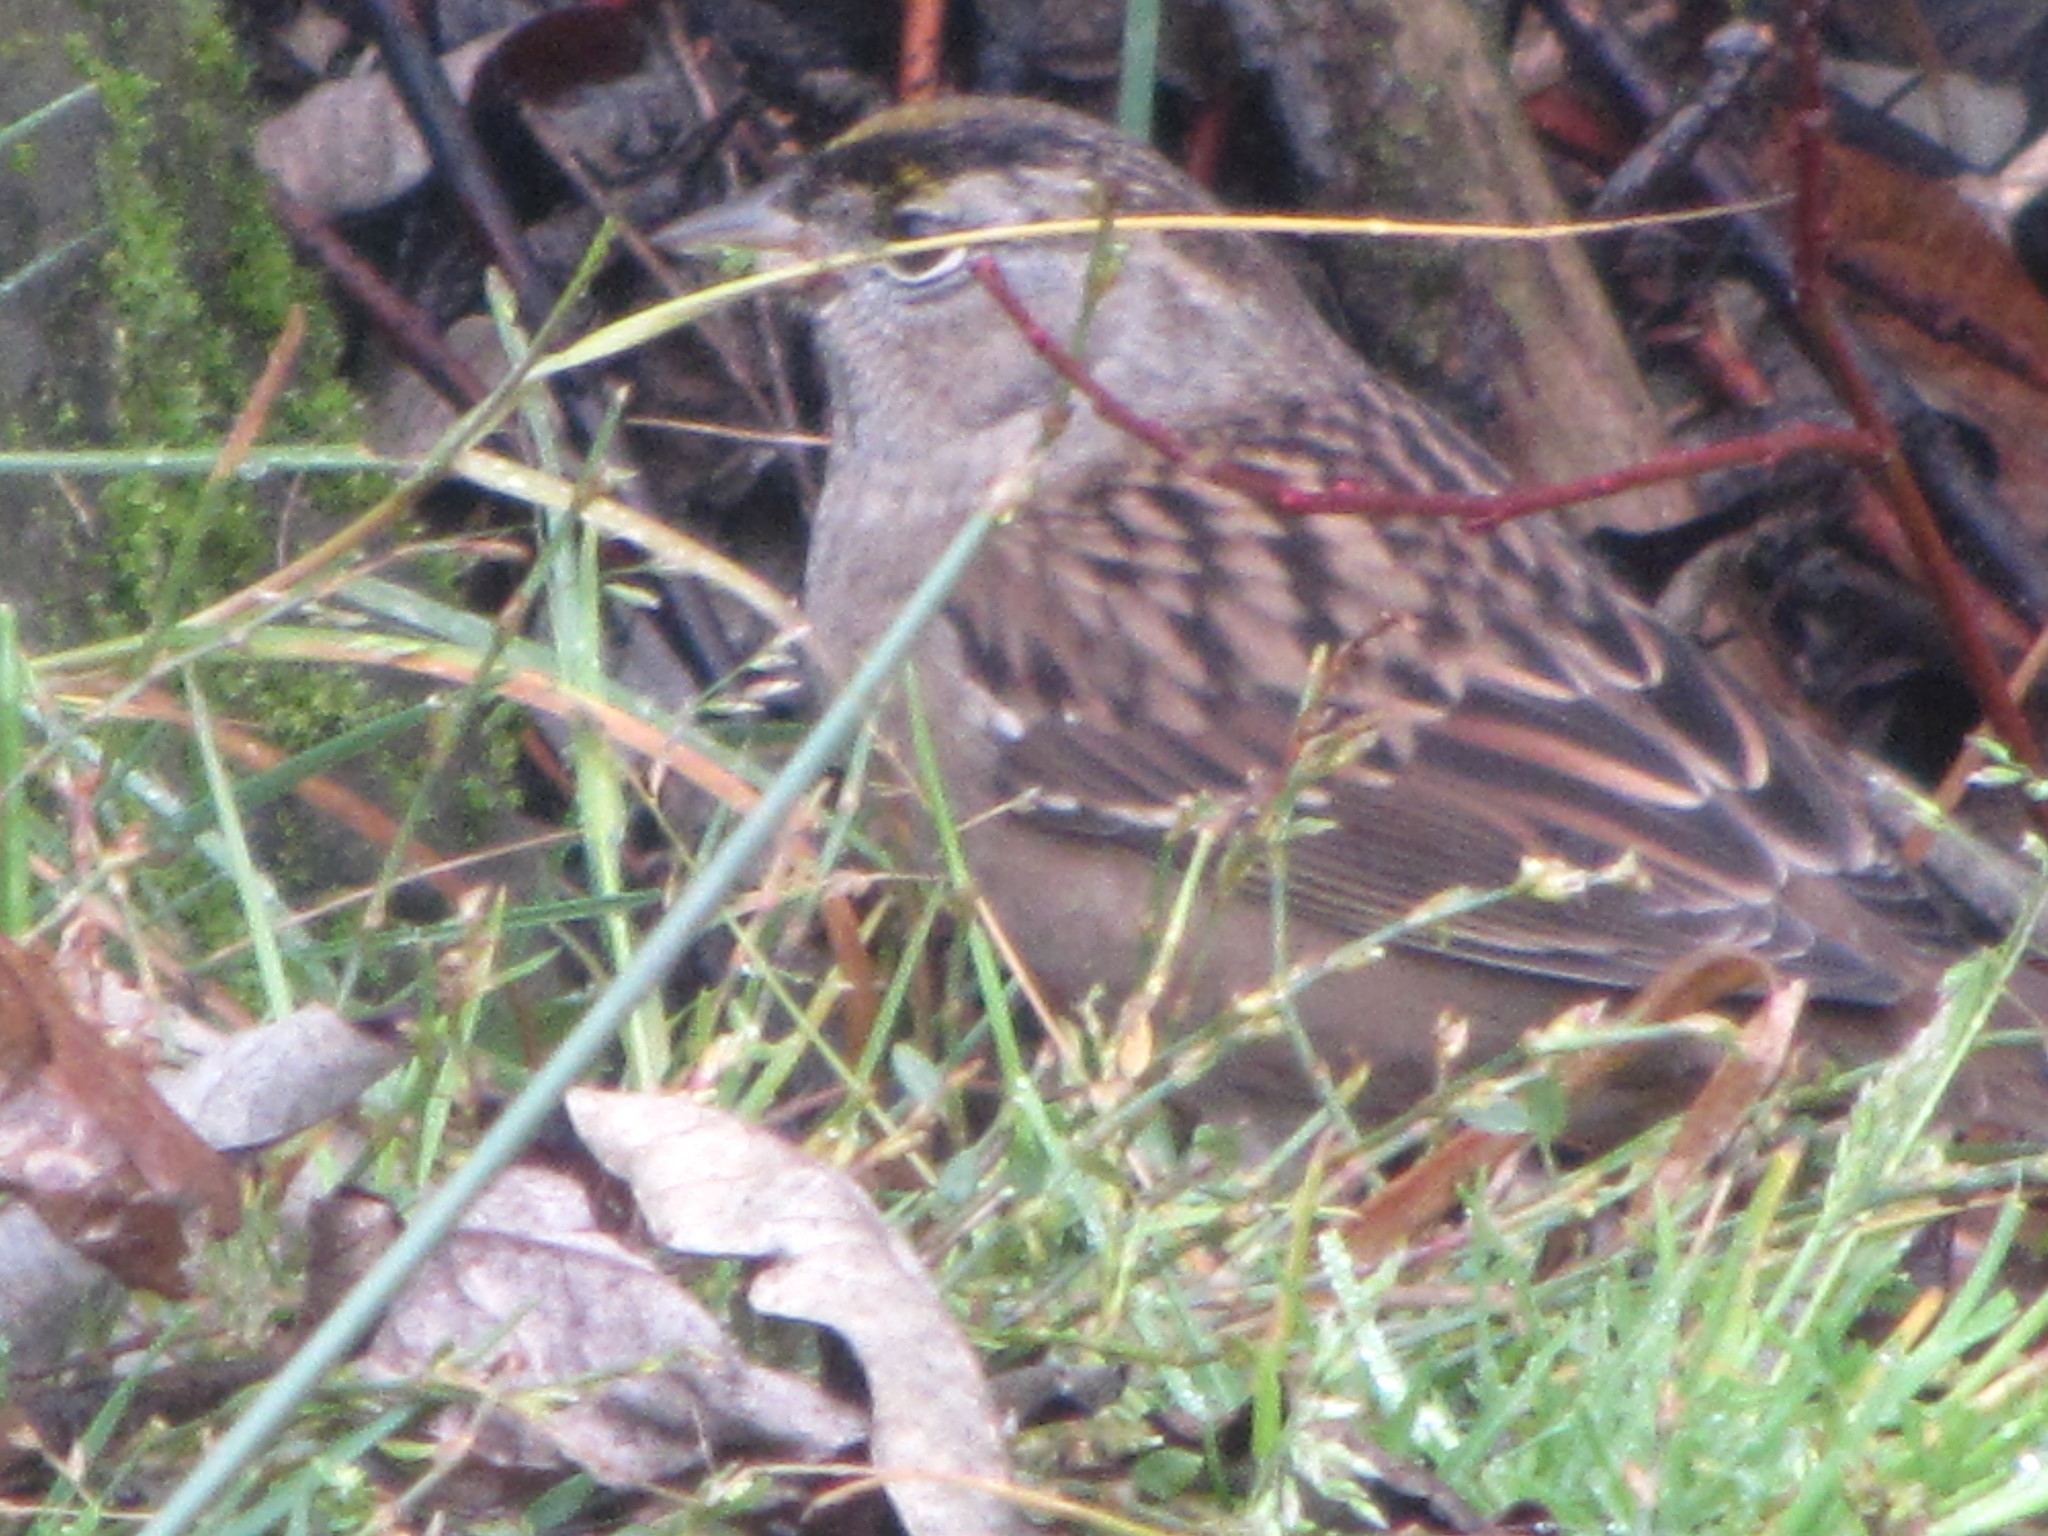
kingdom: Animalia
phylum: Chordata
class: Aves
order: Passeriformes
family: Passerellidae
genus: Zonotrichia
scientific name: Zonotrichia atricapilla
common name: Golden-crowned sparrow
